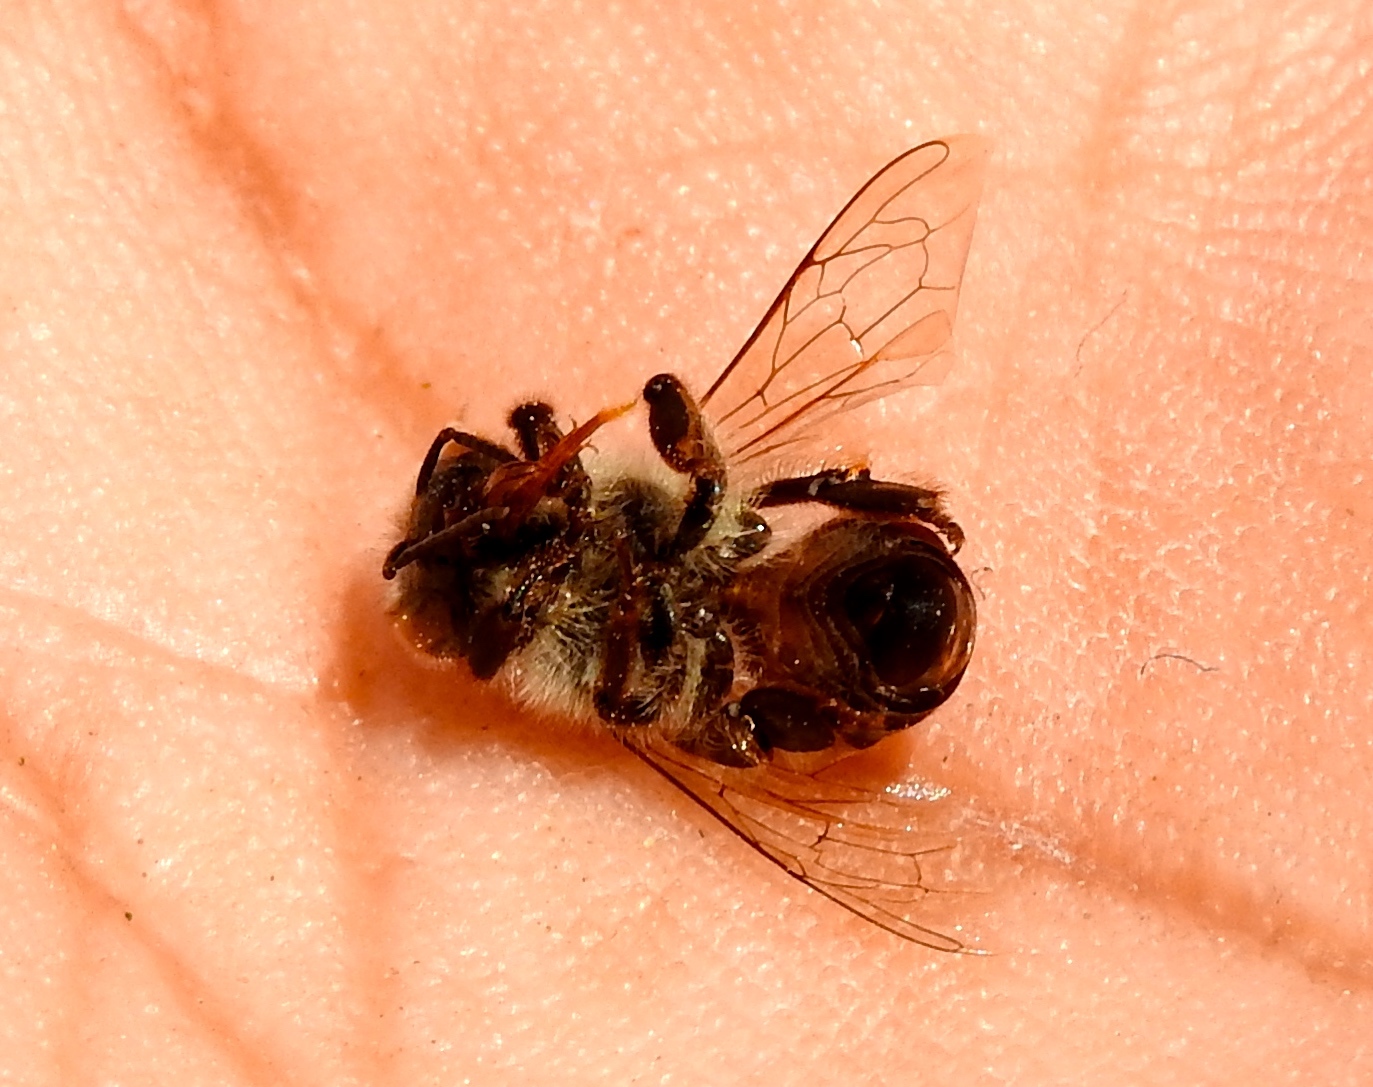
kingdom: Animalia
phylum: Arthropoda
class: Insecta
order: Hymenoptera
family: Apidae
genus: Apis
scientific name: Apis mellifera
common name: Honey bee
